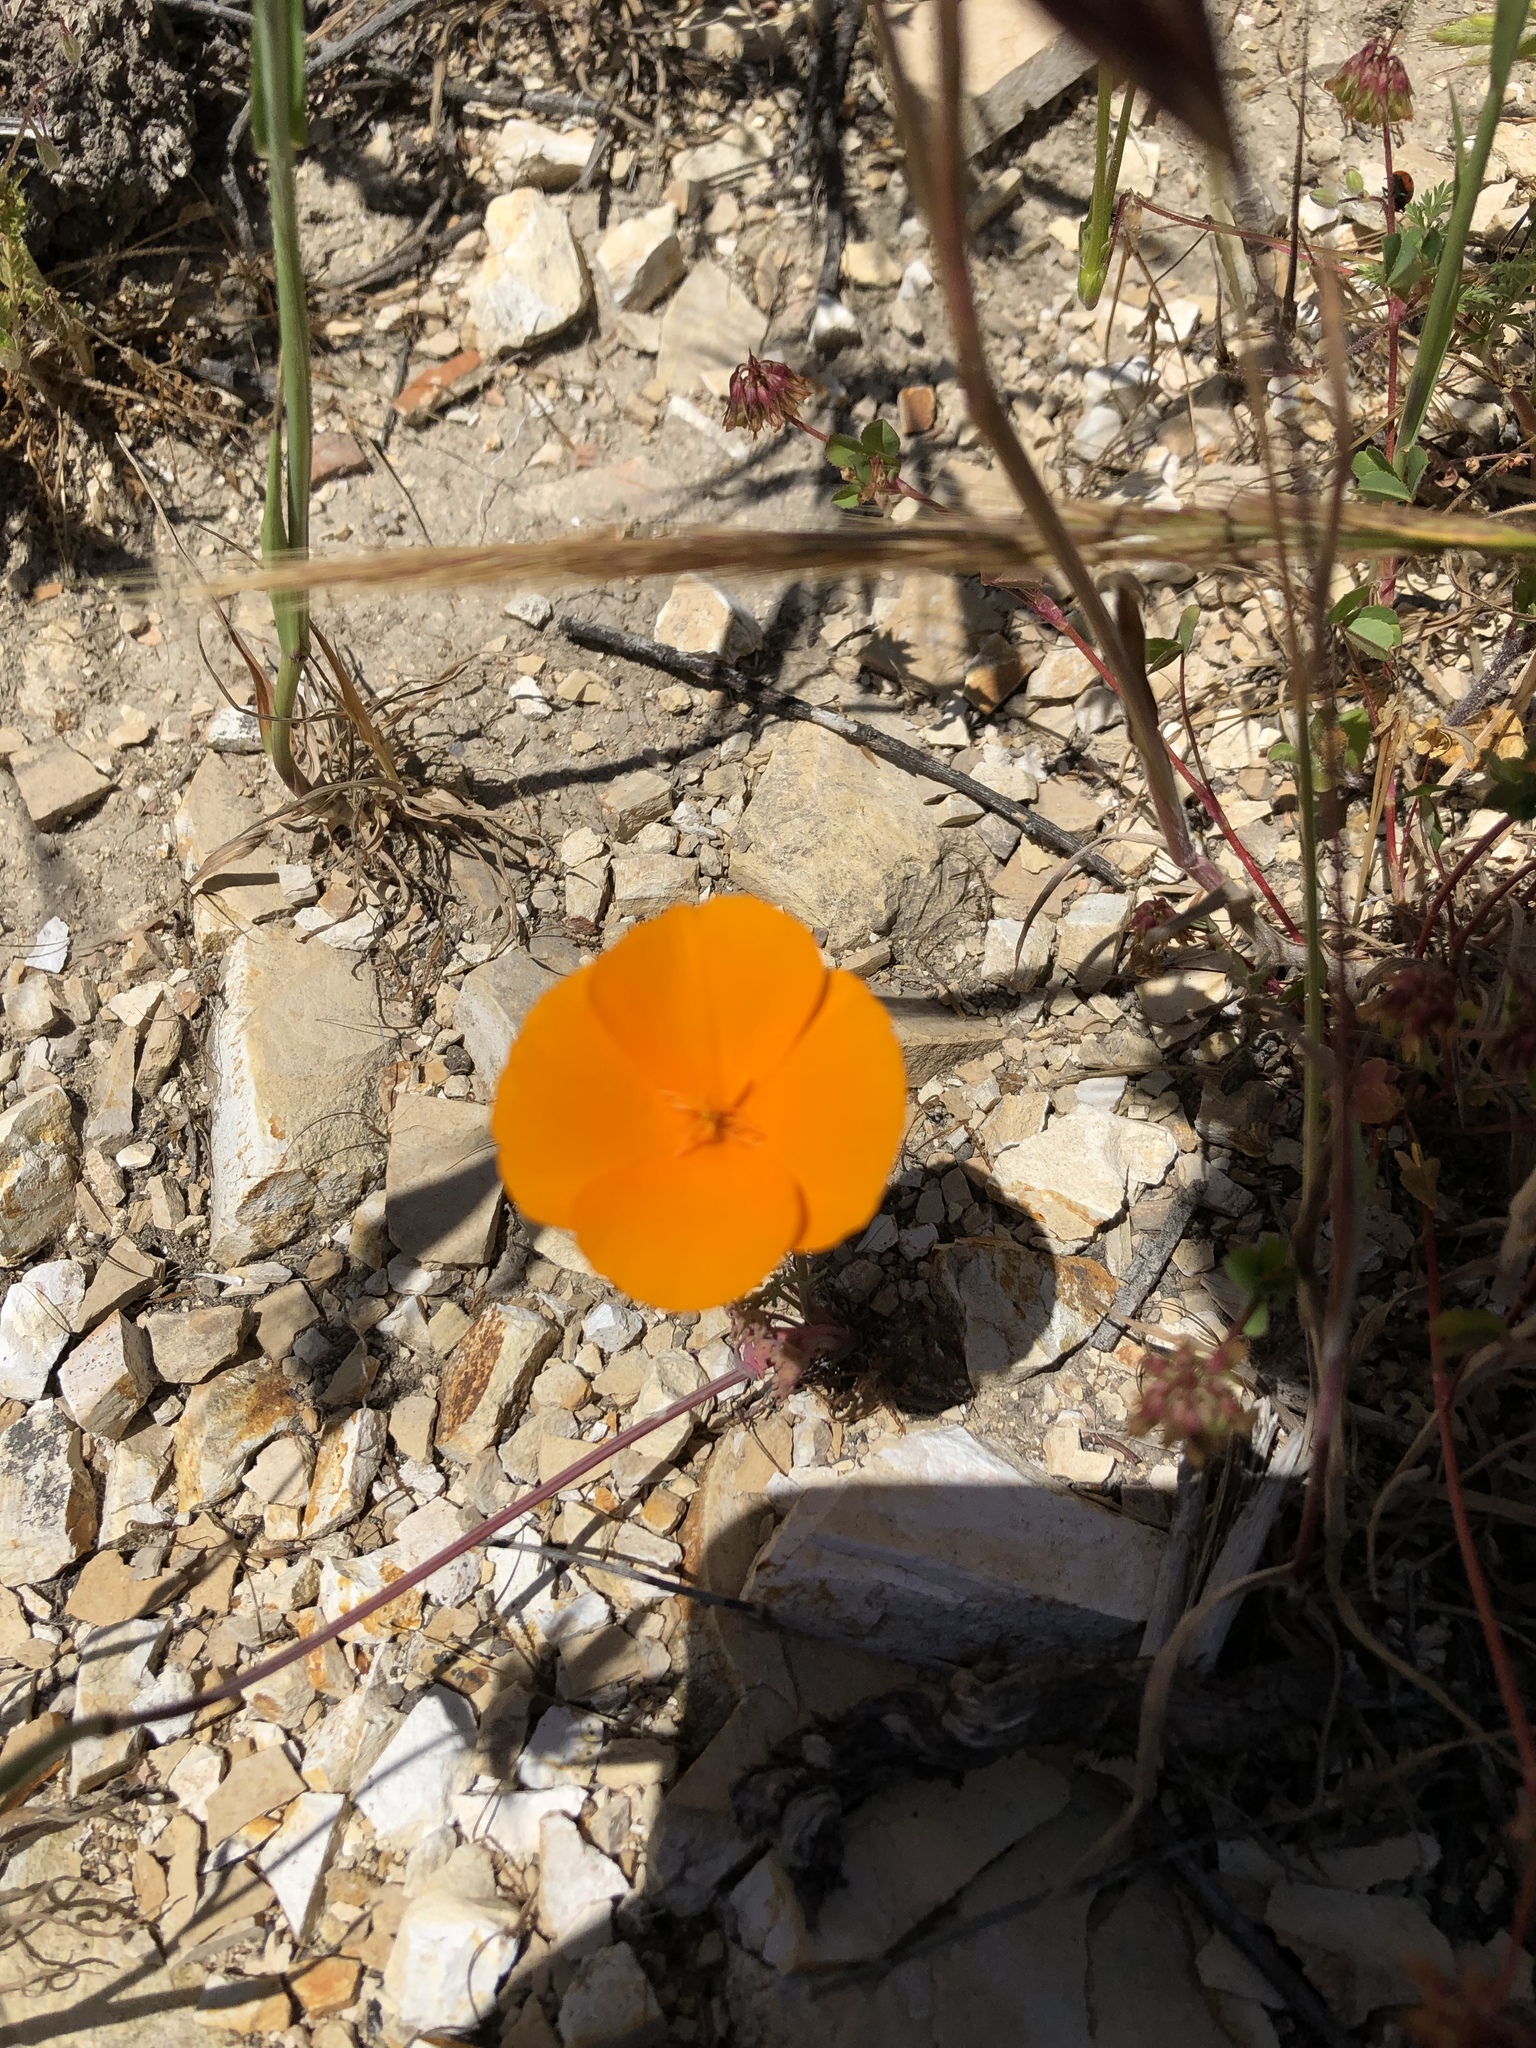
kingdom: Plantae
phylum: Tracheophyta
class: Magnoliopsida
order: Ranunculales
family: Papaveraceae
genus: Eschscholzia
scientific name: Eschscholzia caespitosa
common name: Tufted california-poppy
